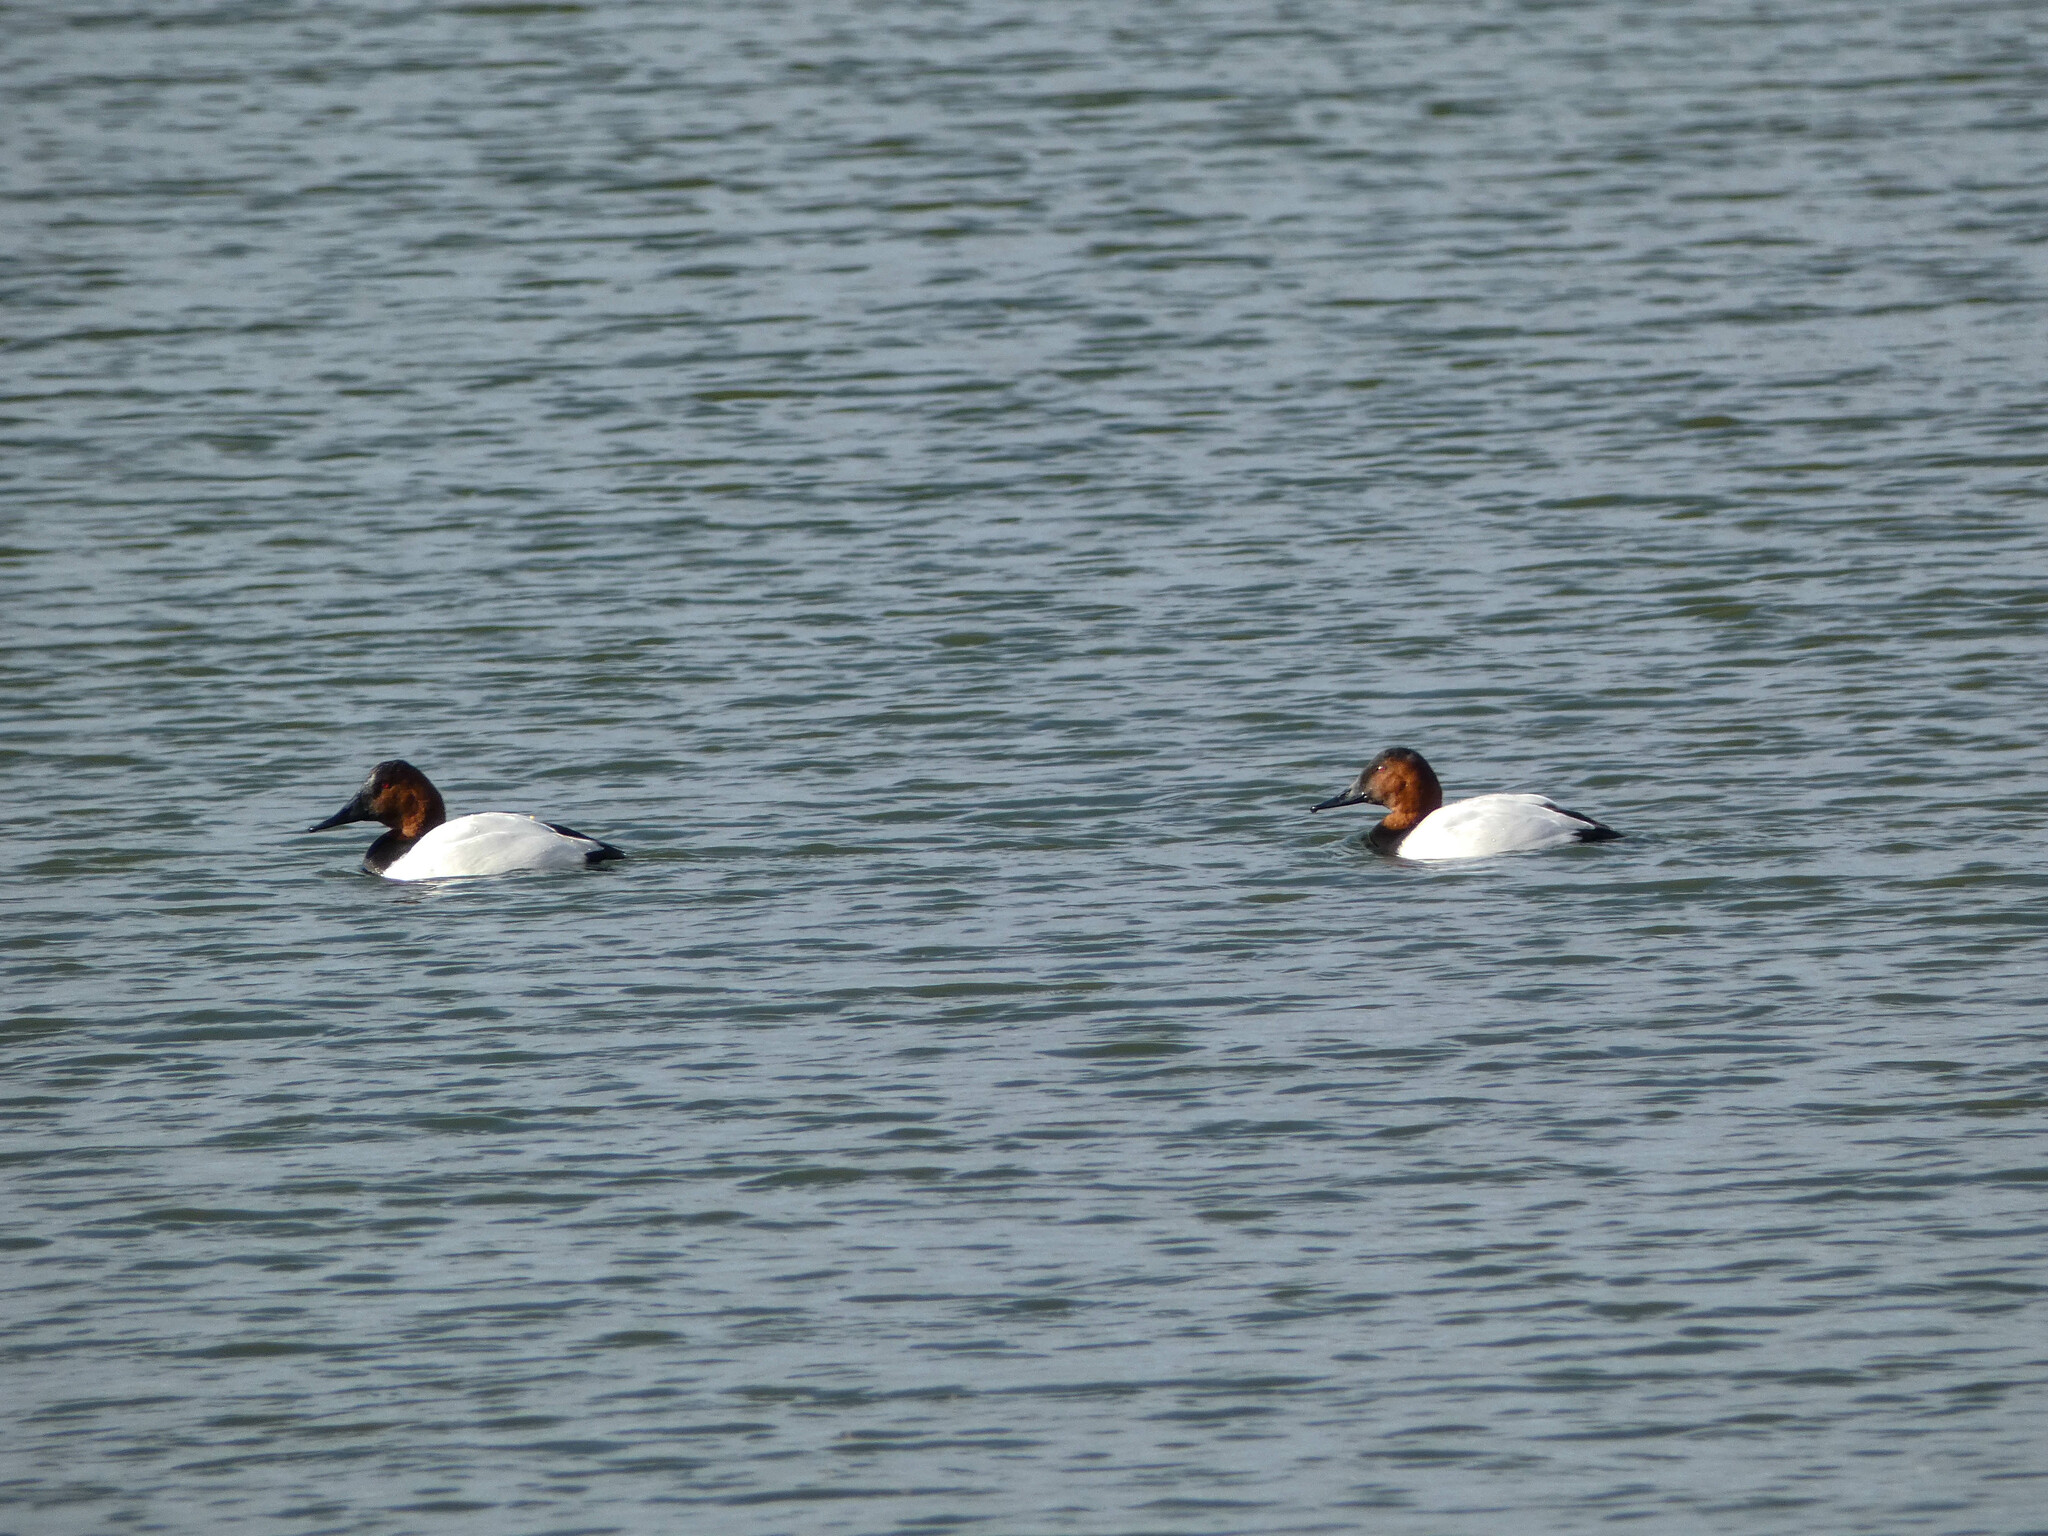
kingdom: Animalia
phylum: Chordata
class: Aves
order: Anseriformes
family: Anatidae
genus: Aythya
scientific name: Aythya valisineria
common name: Canvasback
